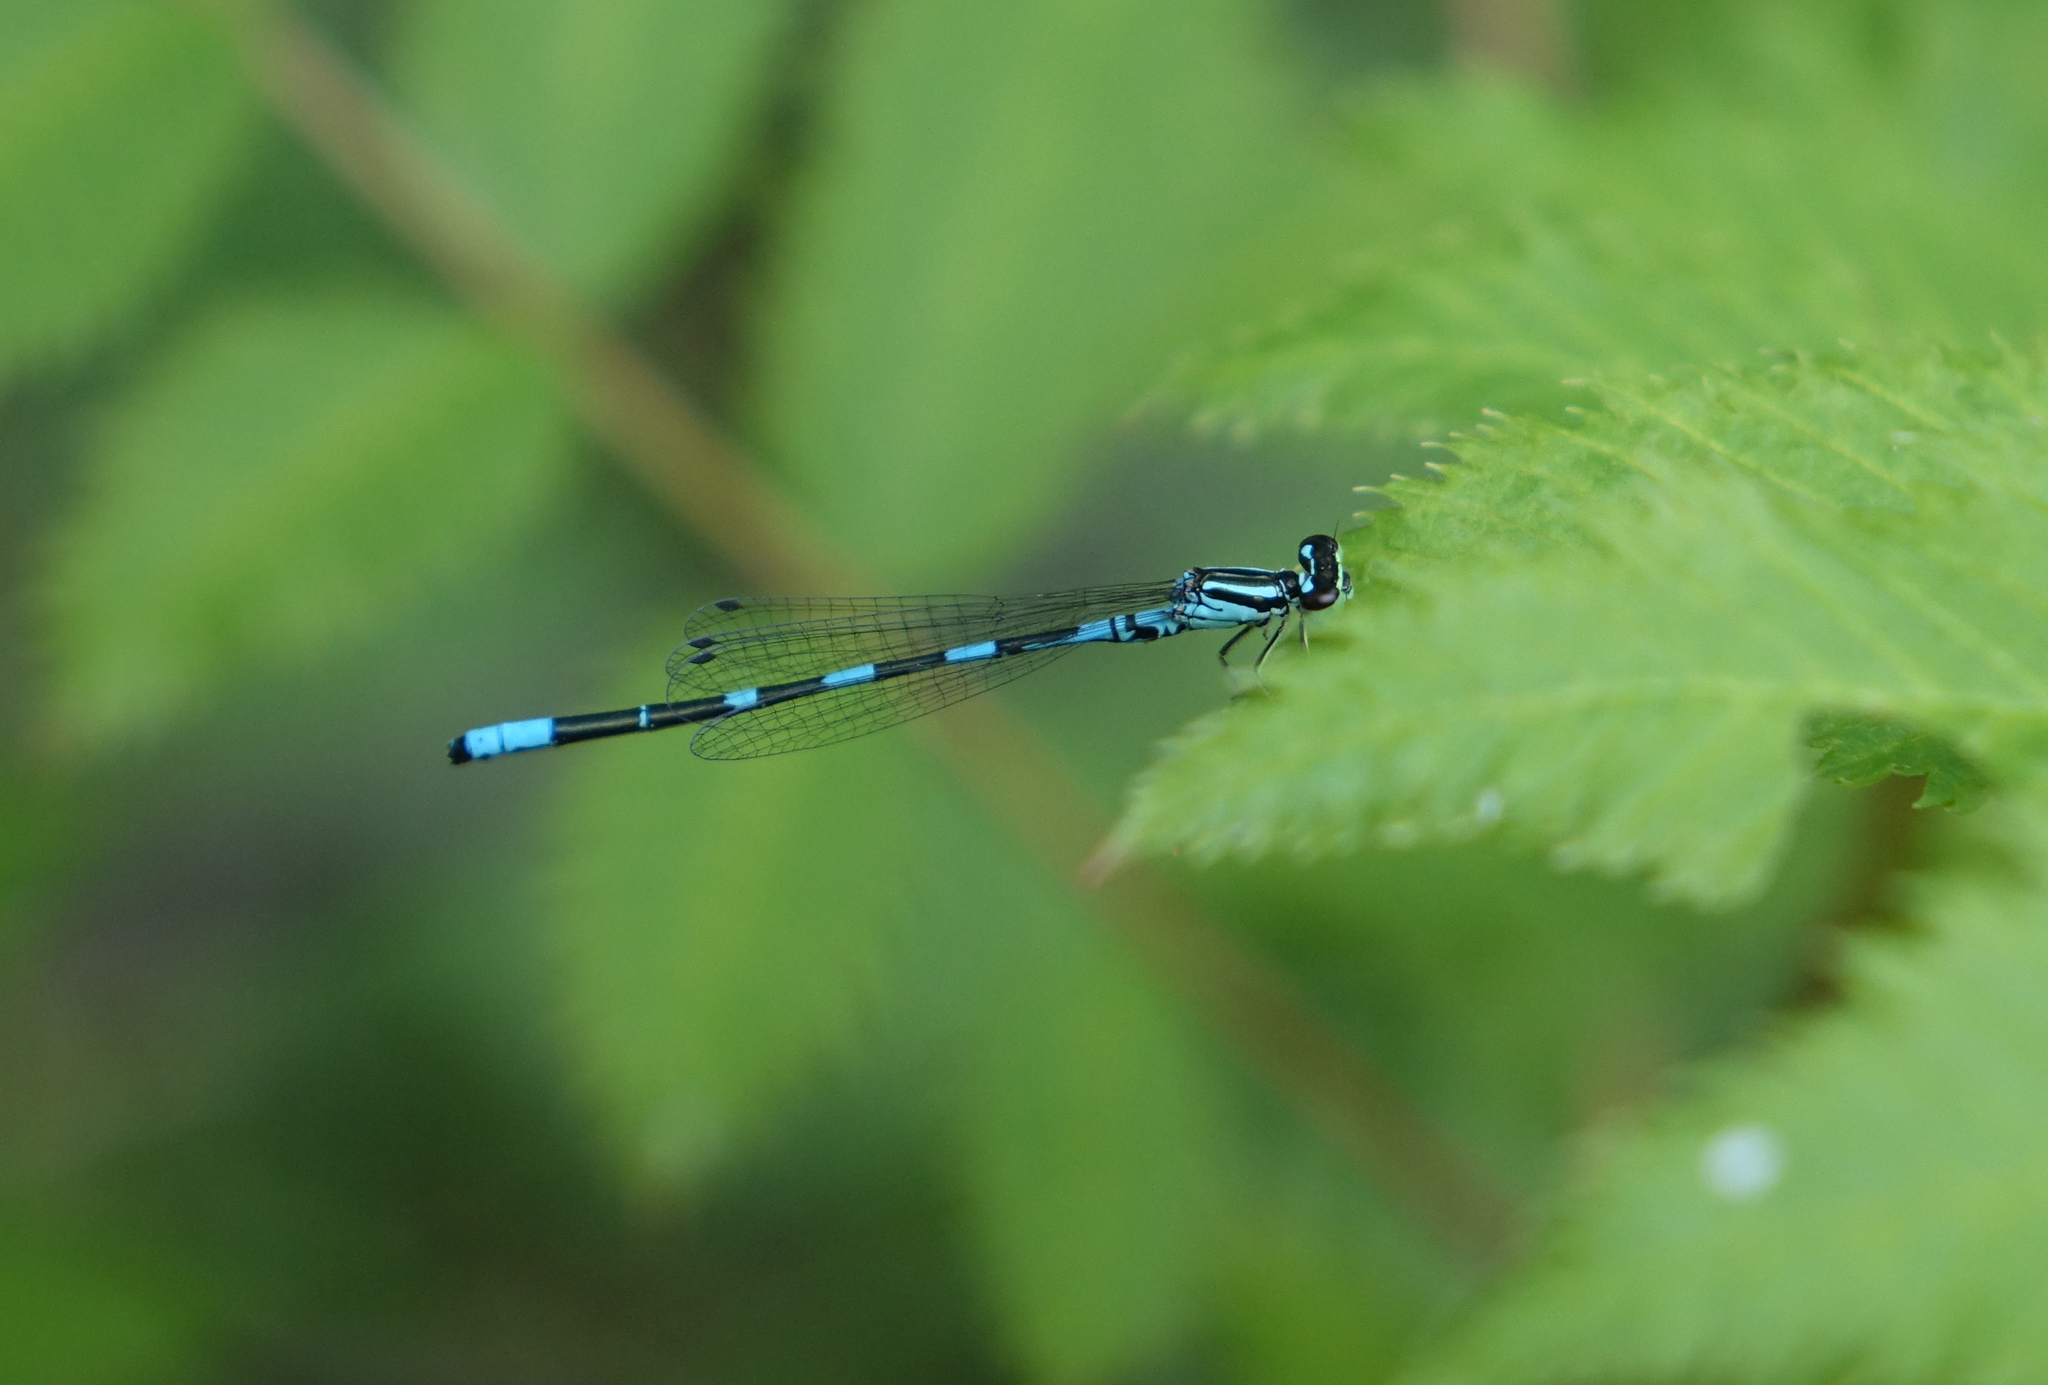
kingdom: Animalia
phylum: Arthropoda
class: Insecta
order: Odonata
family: Coenagrionidae
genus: Coenagrion
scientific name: Coenagrion johanssoni
